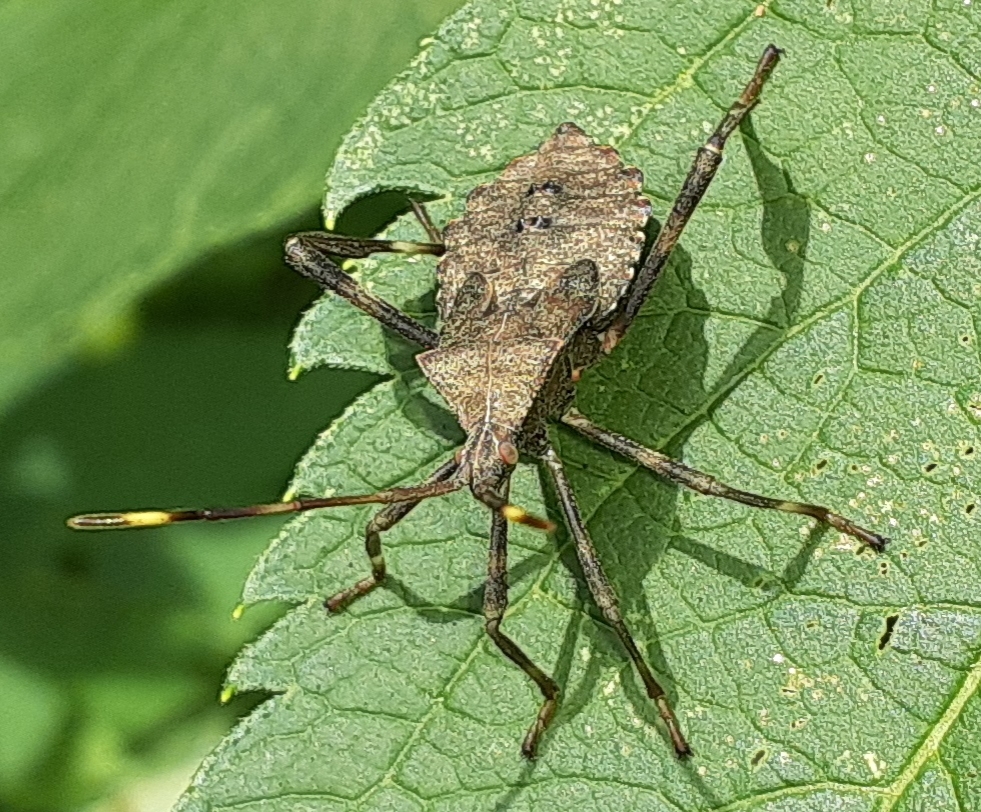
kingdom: Animalia
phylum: Arthropoda
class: Insecta
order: Hemiptera
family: Coreidae
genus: Acanthocephala
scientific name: Acanthocephala terminalis
